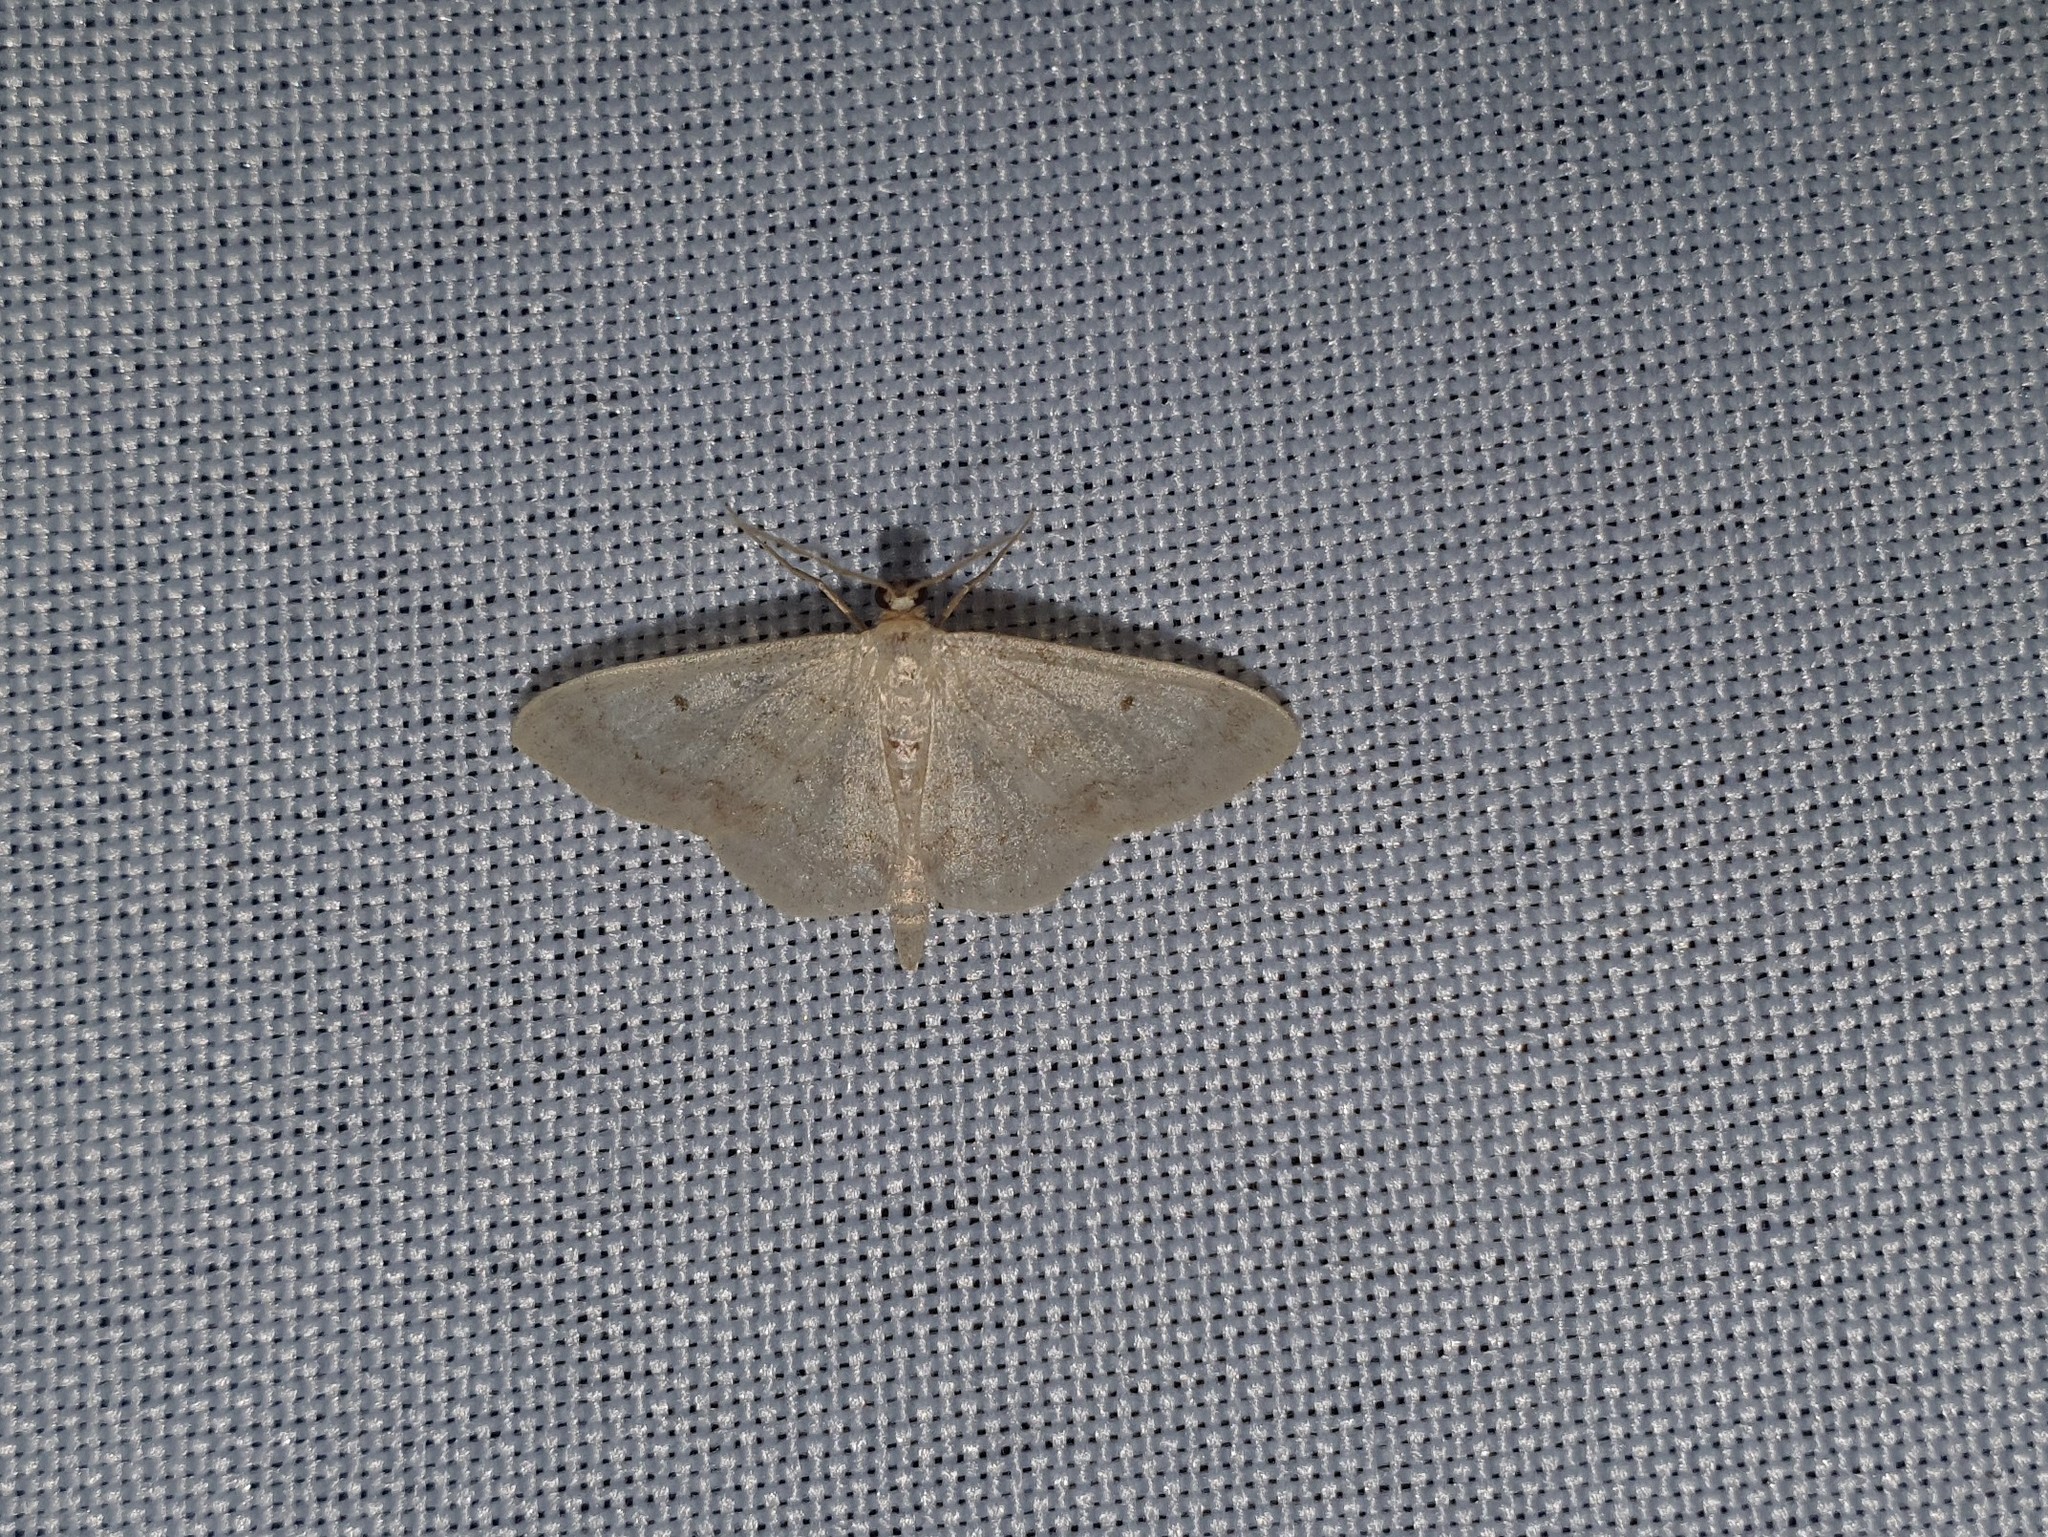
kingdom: Animalia
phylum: Arthropoda
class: Insecta
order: Lepidoptera
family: Geometridae
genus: Idaea
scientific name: Idaea biselata
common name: Small fan-footed wave
